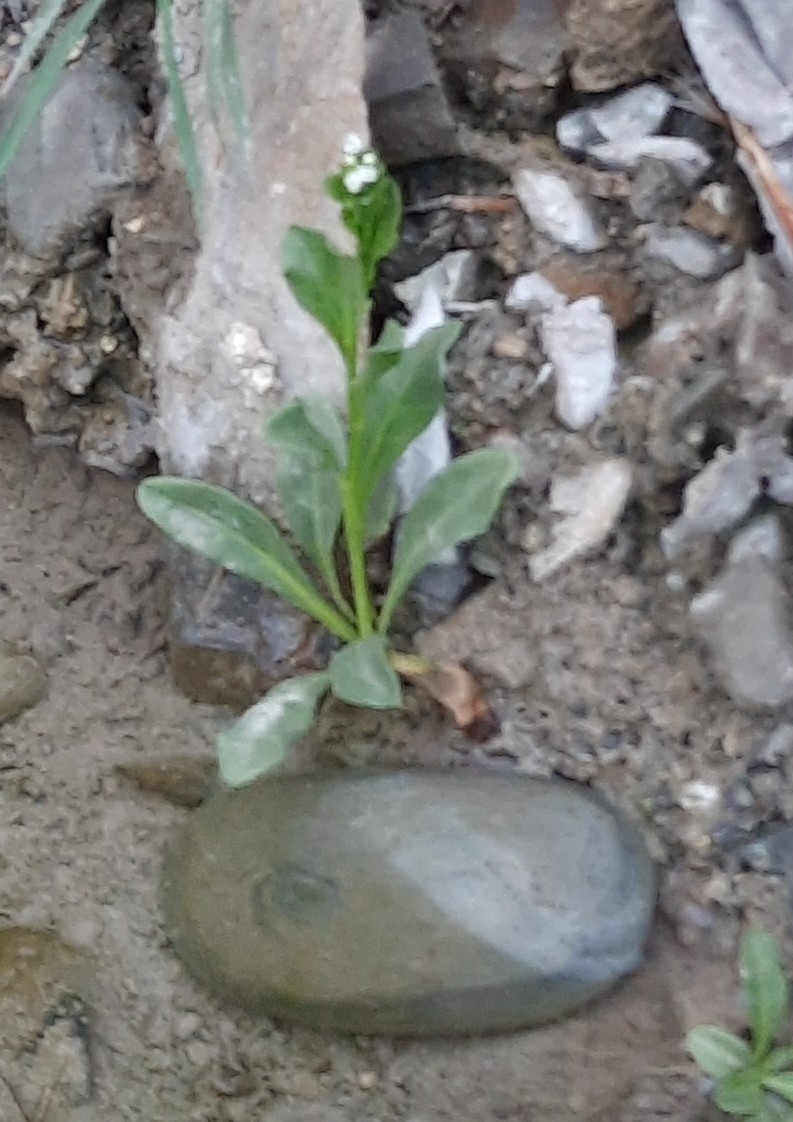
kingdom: Plantae
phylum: Tracheophyta
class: Magnoliopsida
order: Ericales
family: Primulaceae
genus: Samolus
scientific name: Samolus valerandi
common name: Brookweed
